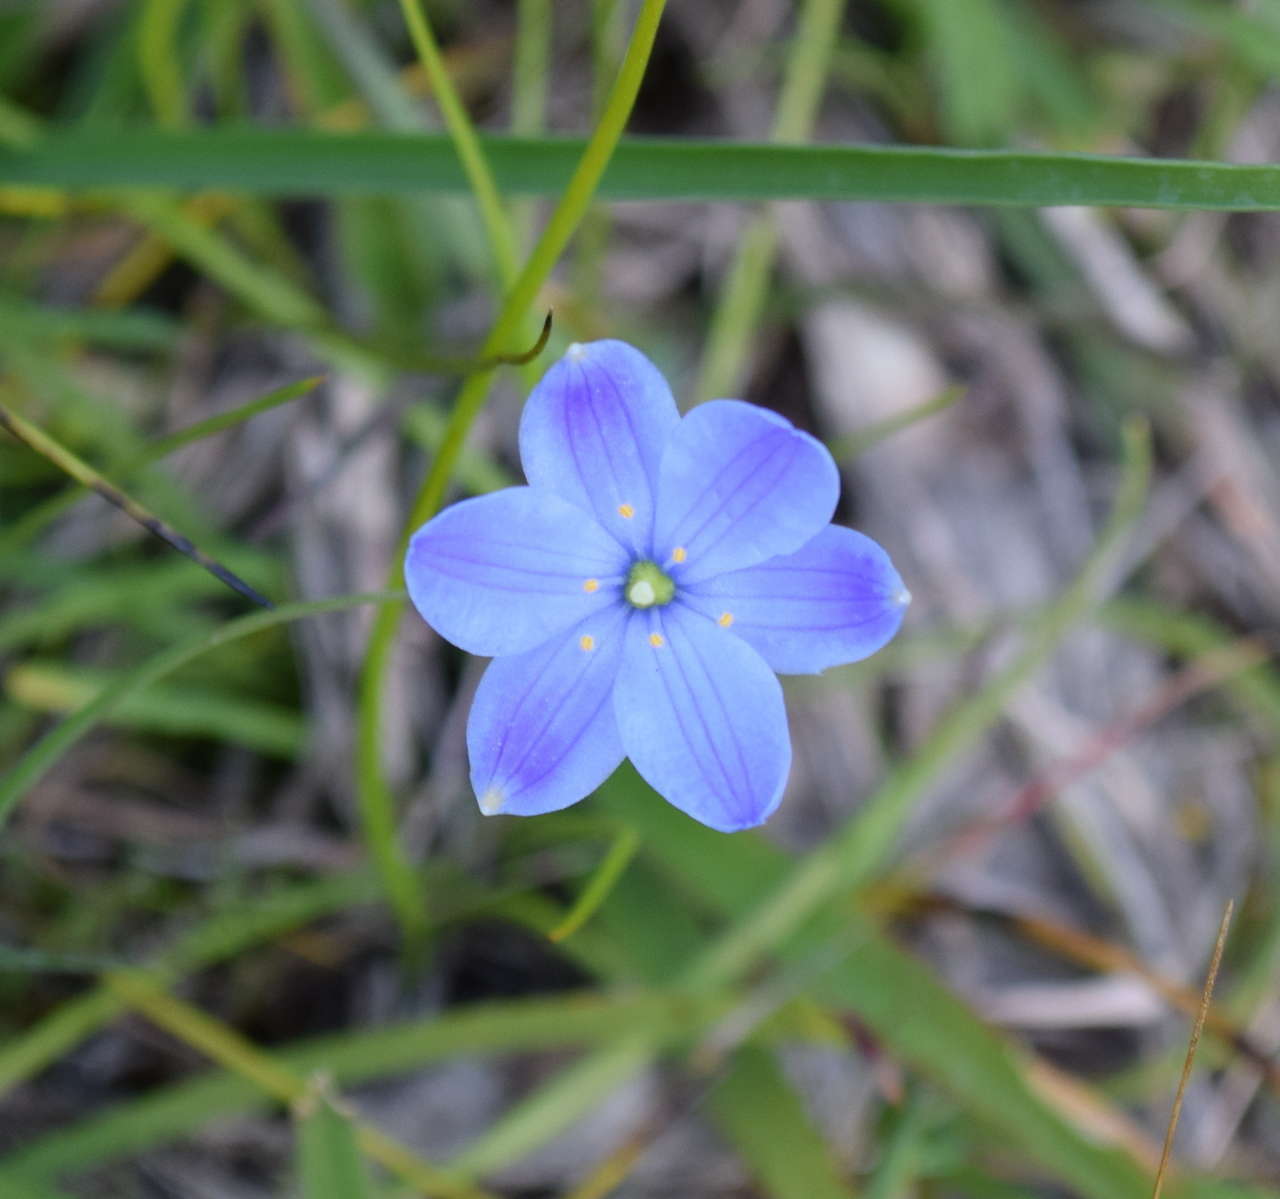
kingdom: Plantae
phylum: Tracheophyta
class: Liliopsida
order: Asparagales
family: Asphodelaceae
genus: Chamaescilla
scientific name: Chamaescilla corymbosa
